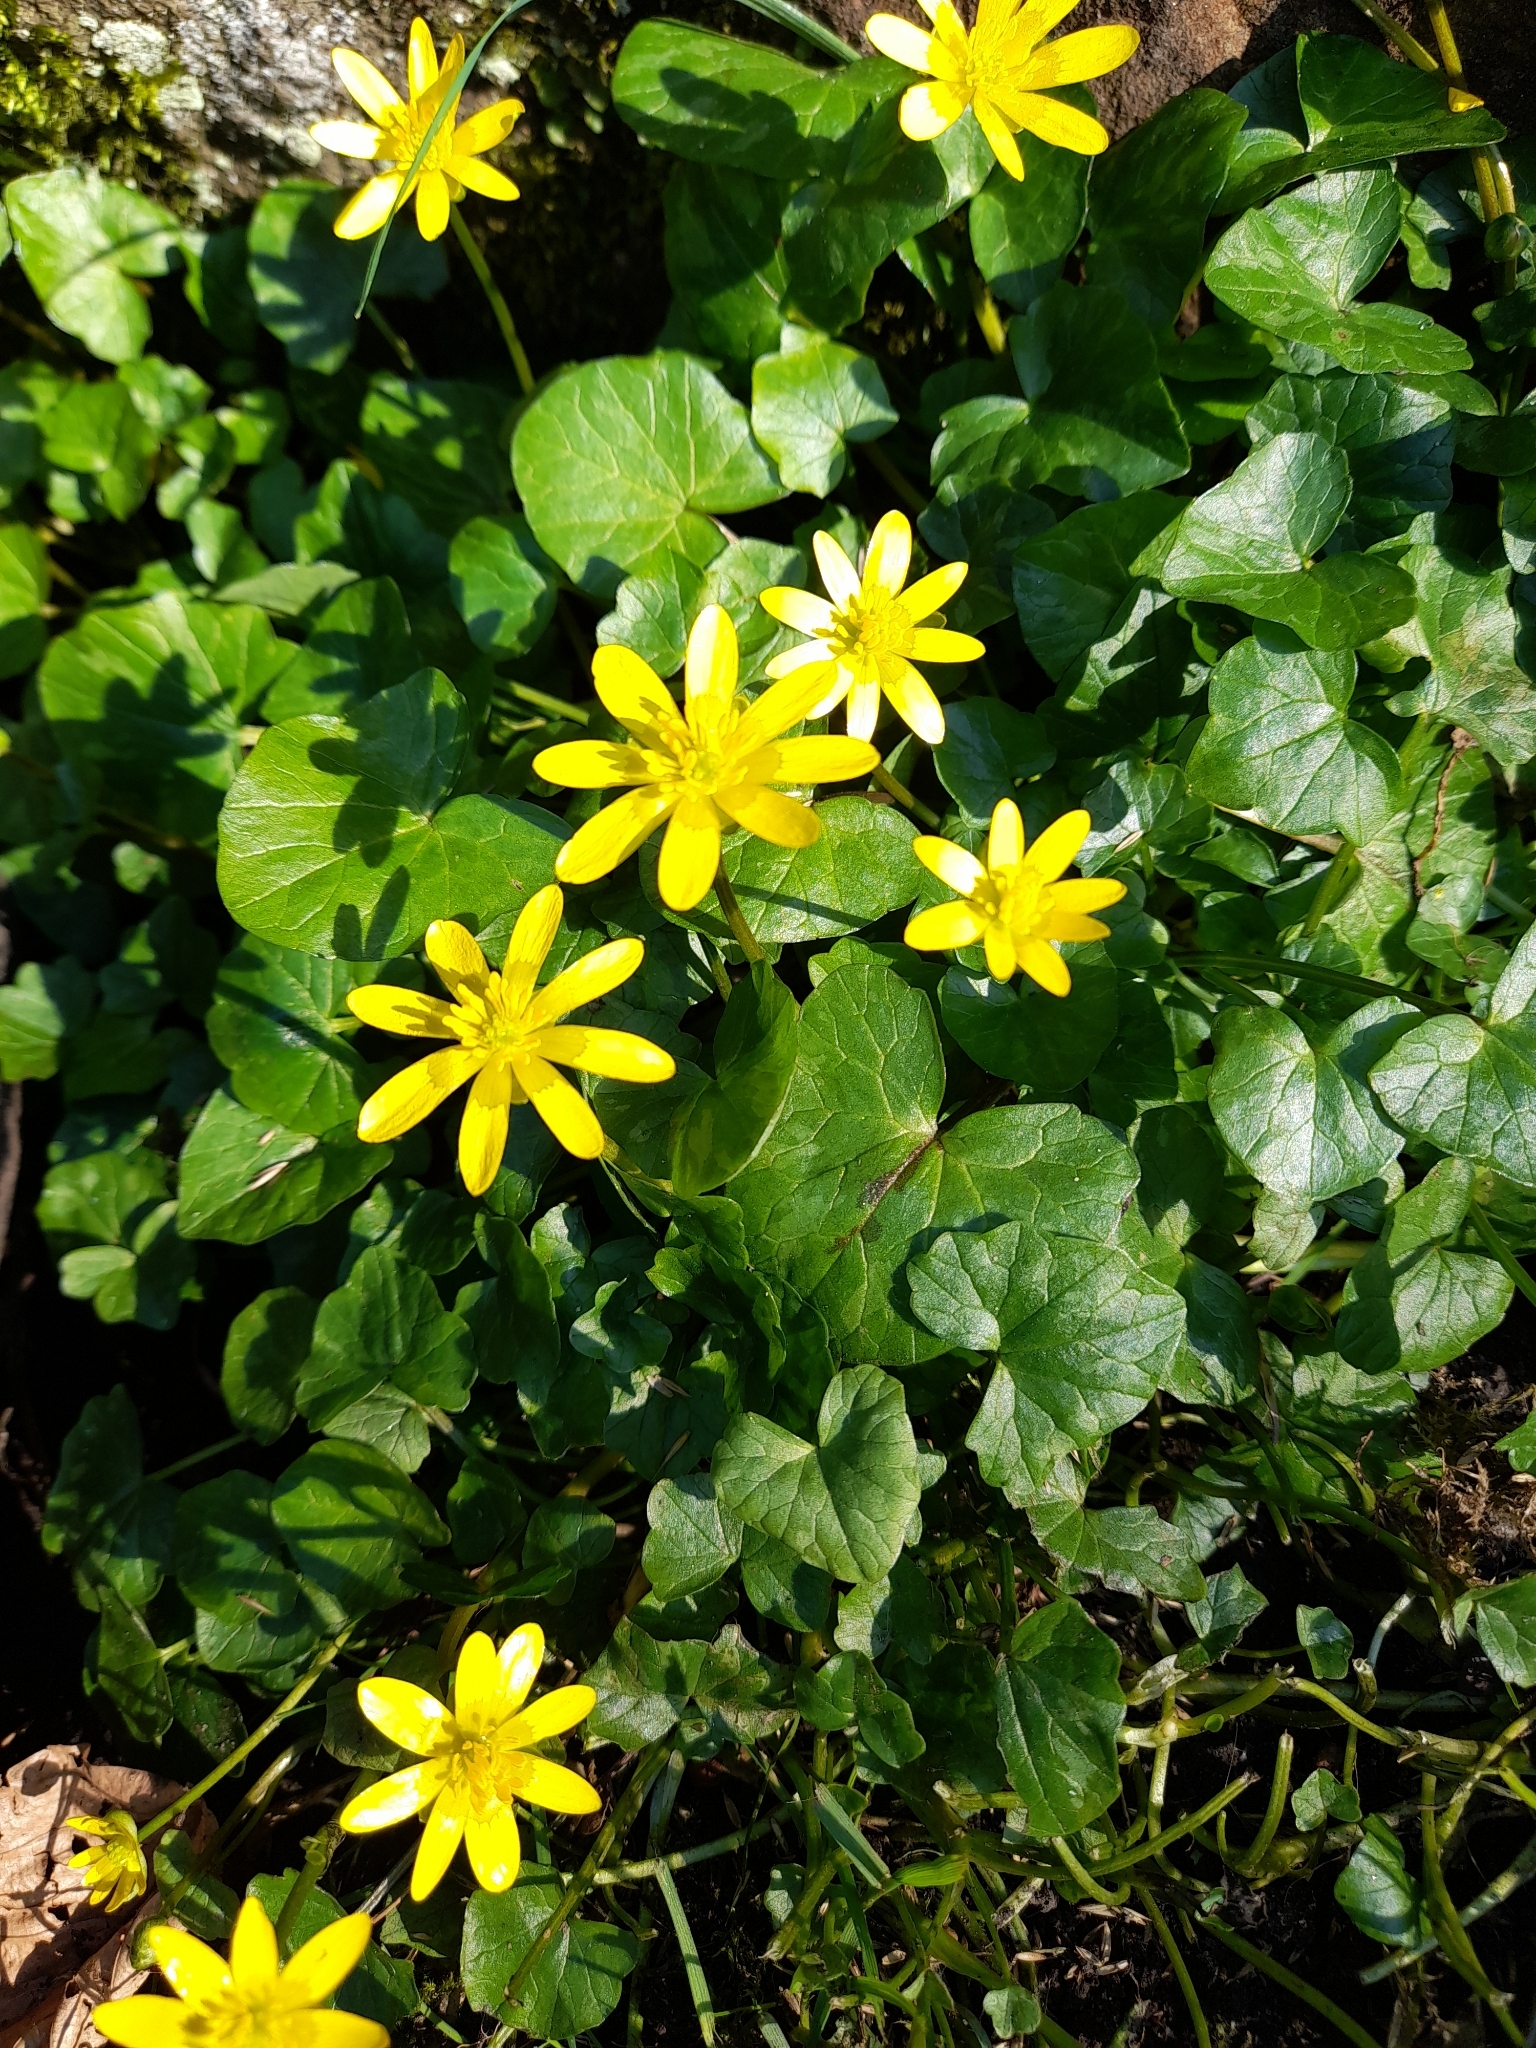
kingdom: Plantae
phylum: Tracheophyta
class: Magnoliopsida
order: Ranunculales
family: Ranunculaceae
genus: Ficaria
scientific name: Ficaria verna
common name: Lesser celandine
